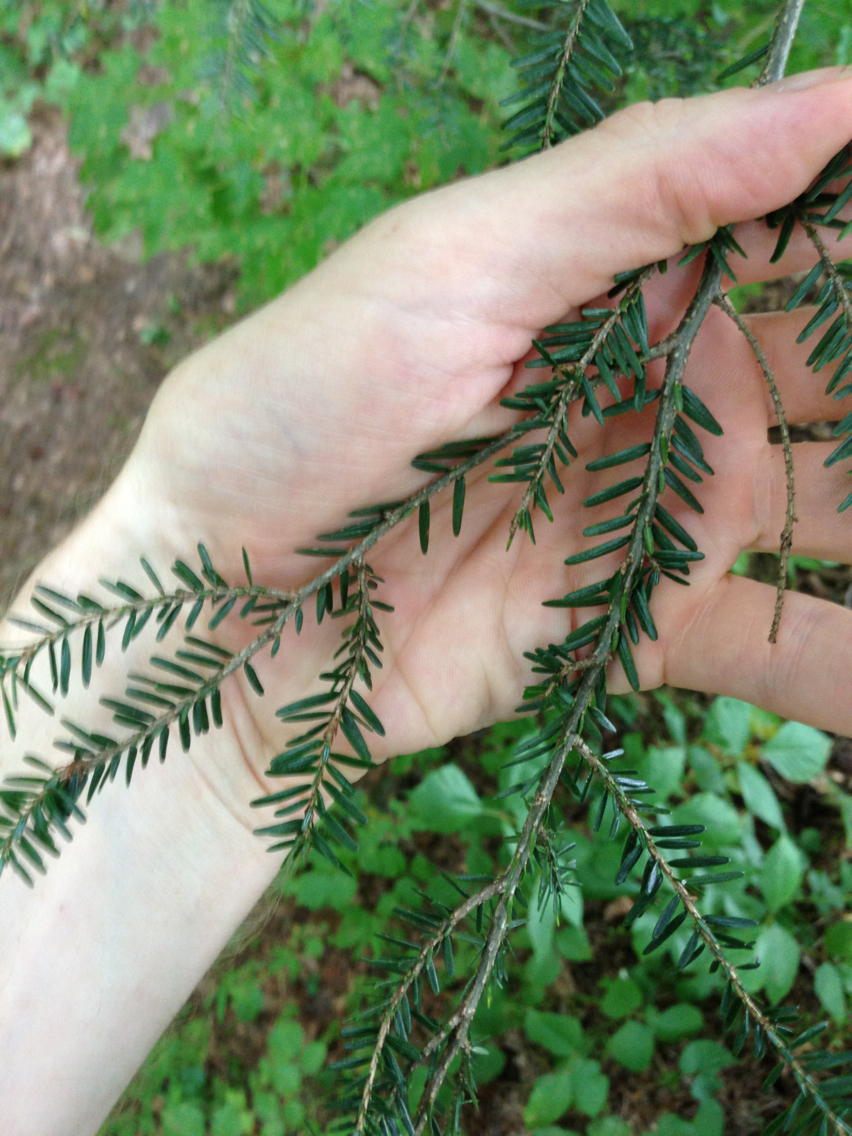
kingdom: Plantae
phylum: Tracheophyta
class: Pinopsida
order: Pinales
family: Pinaceae
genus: Tsuga
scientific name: Tsuga canadensis
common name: Eastern hemlock
